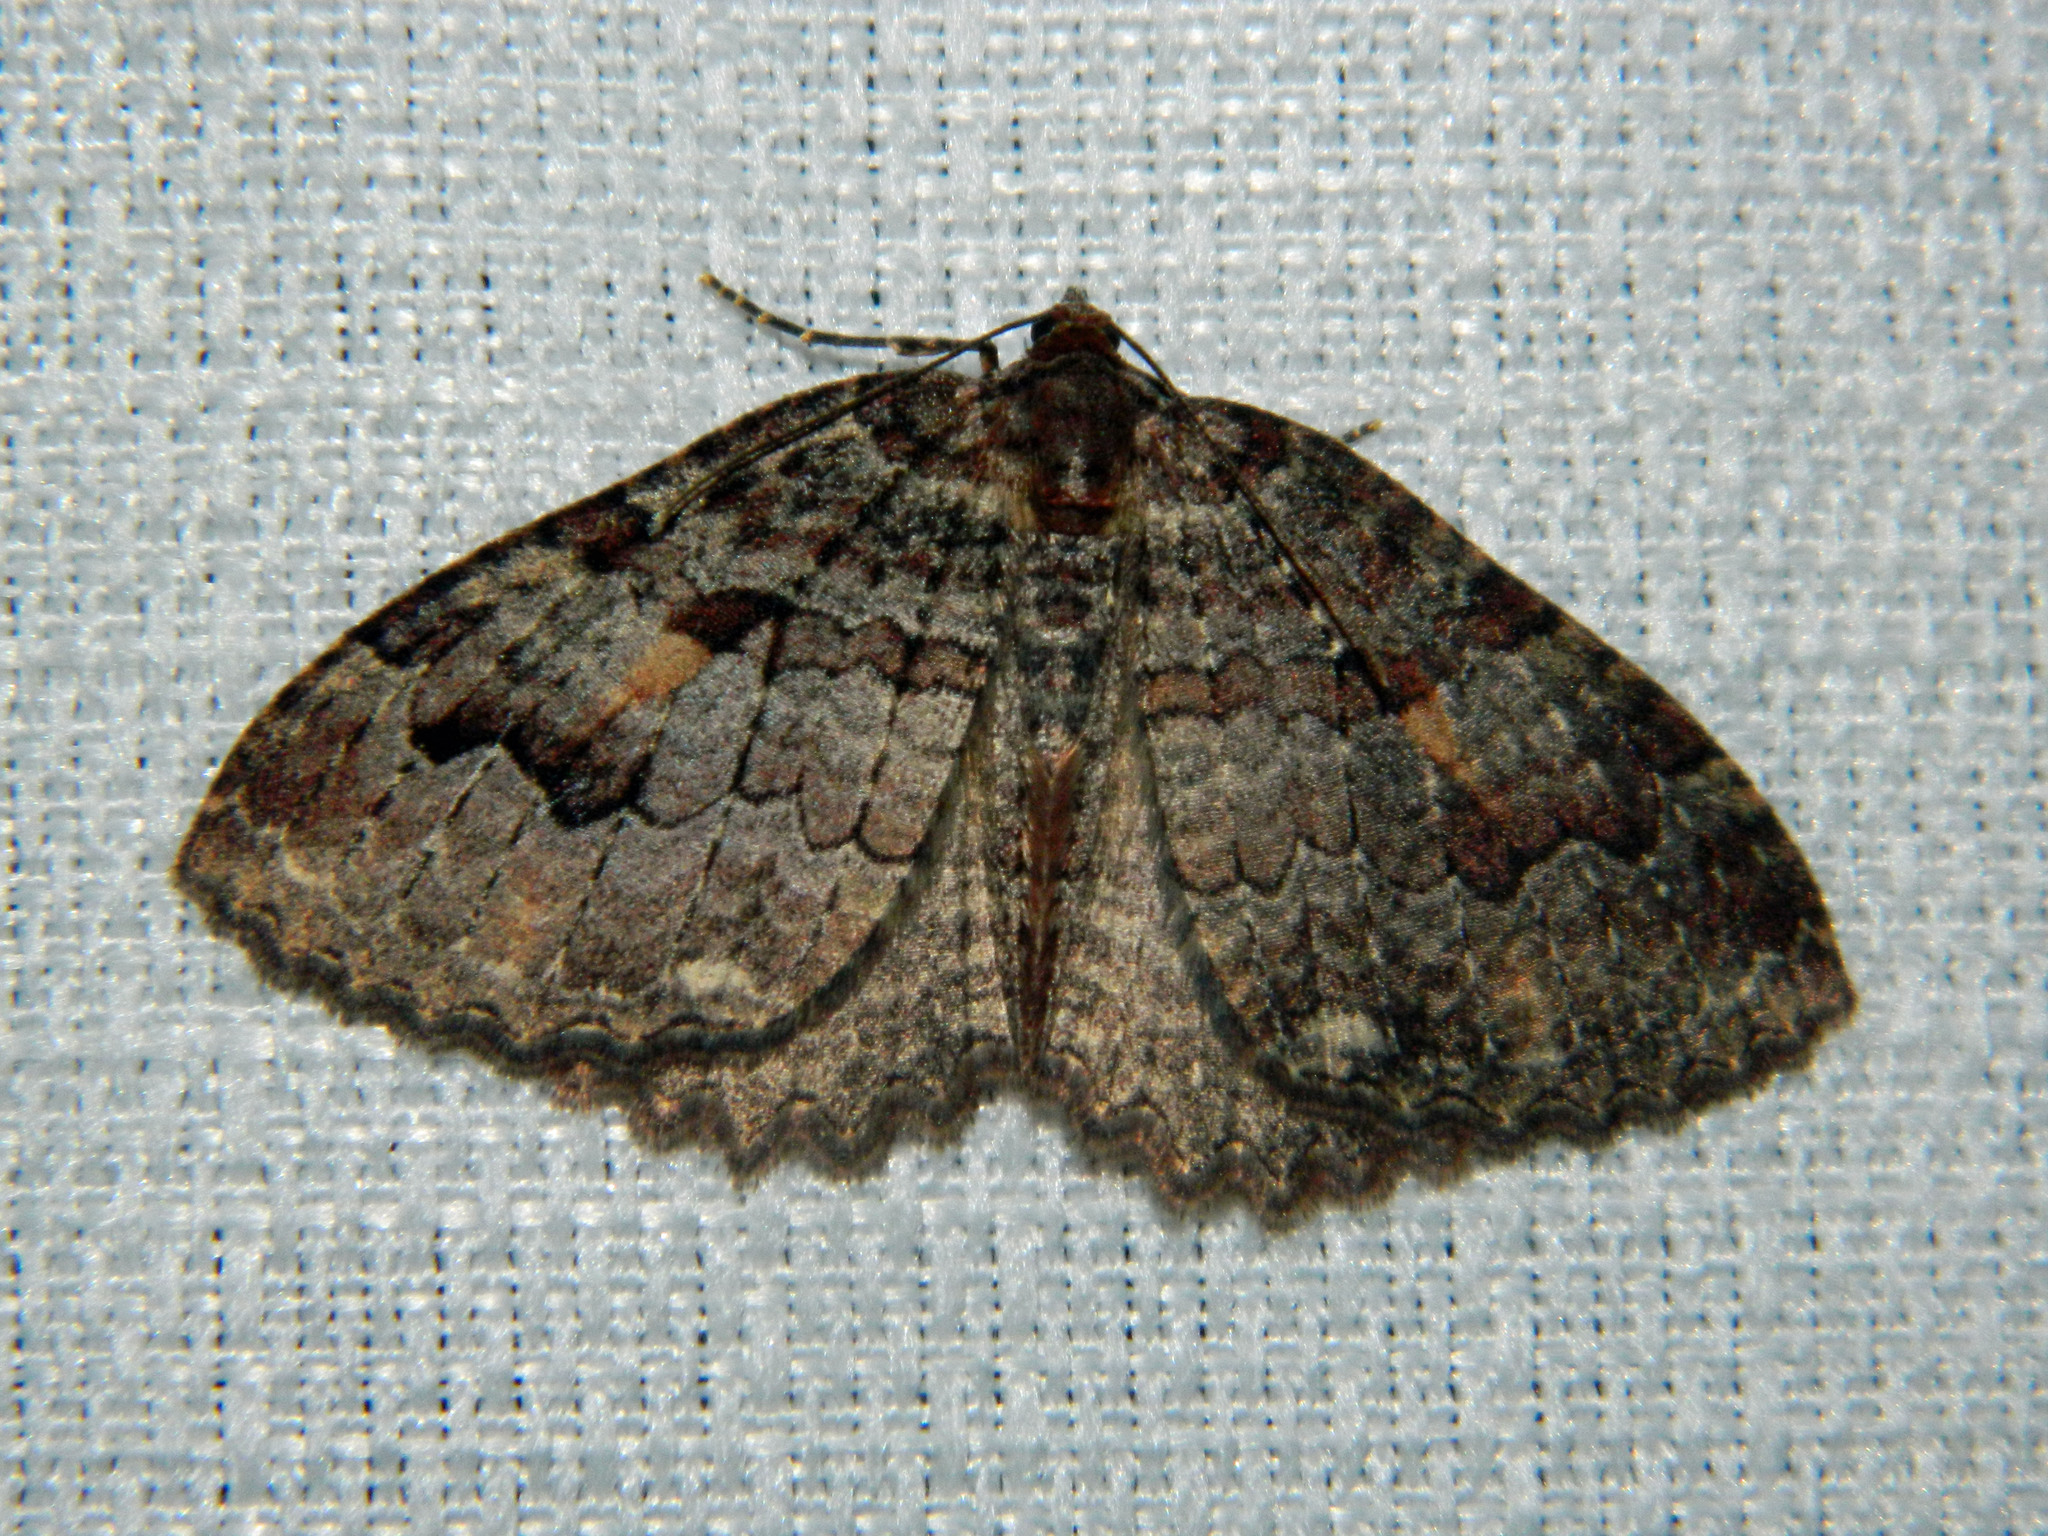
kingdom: Animalia
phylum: Arthropoda
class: Insecta
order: Lepidoptera
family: Geometridae
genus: Triphosa
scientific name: Triphosa haesitata
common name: Tissue moth
